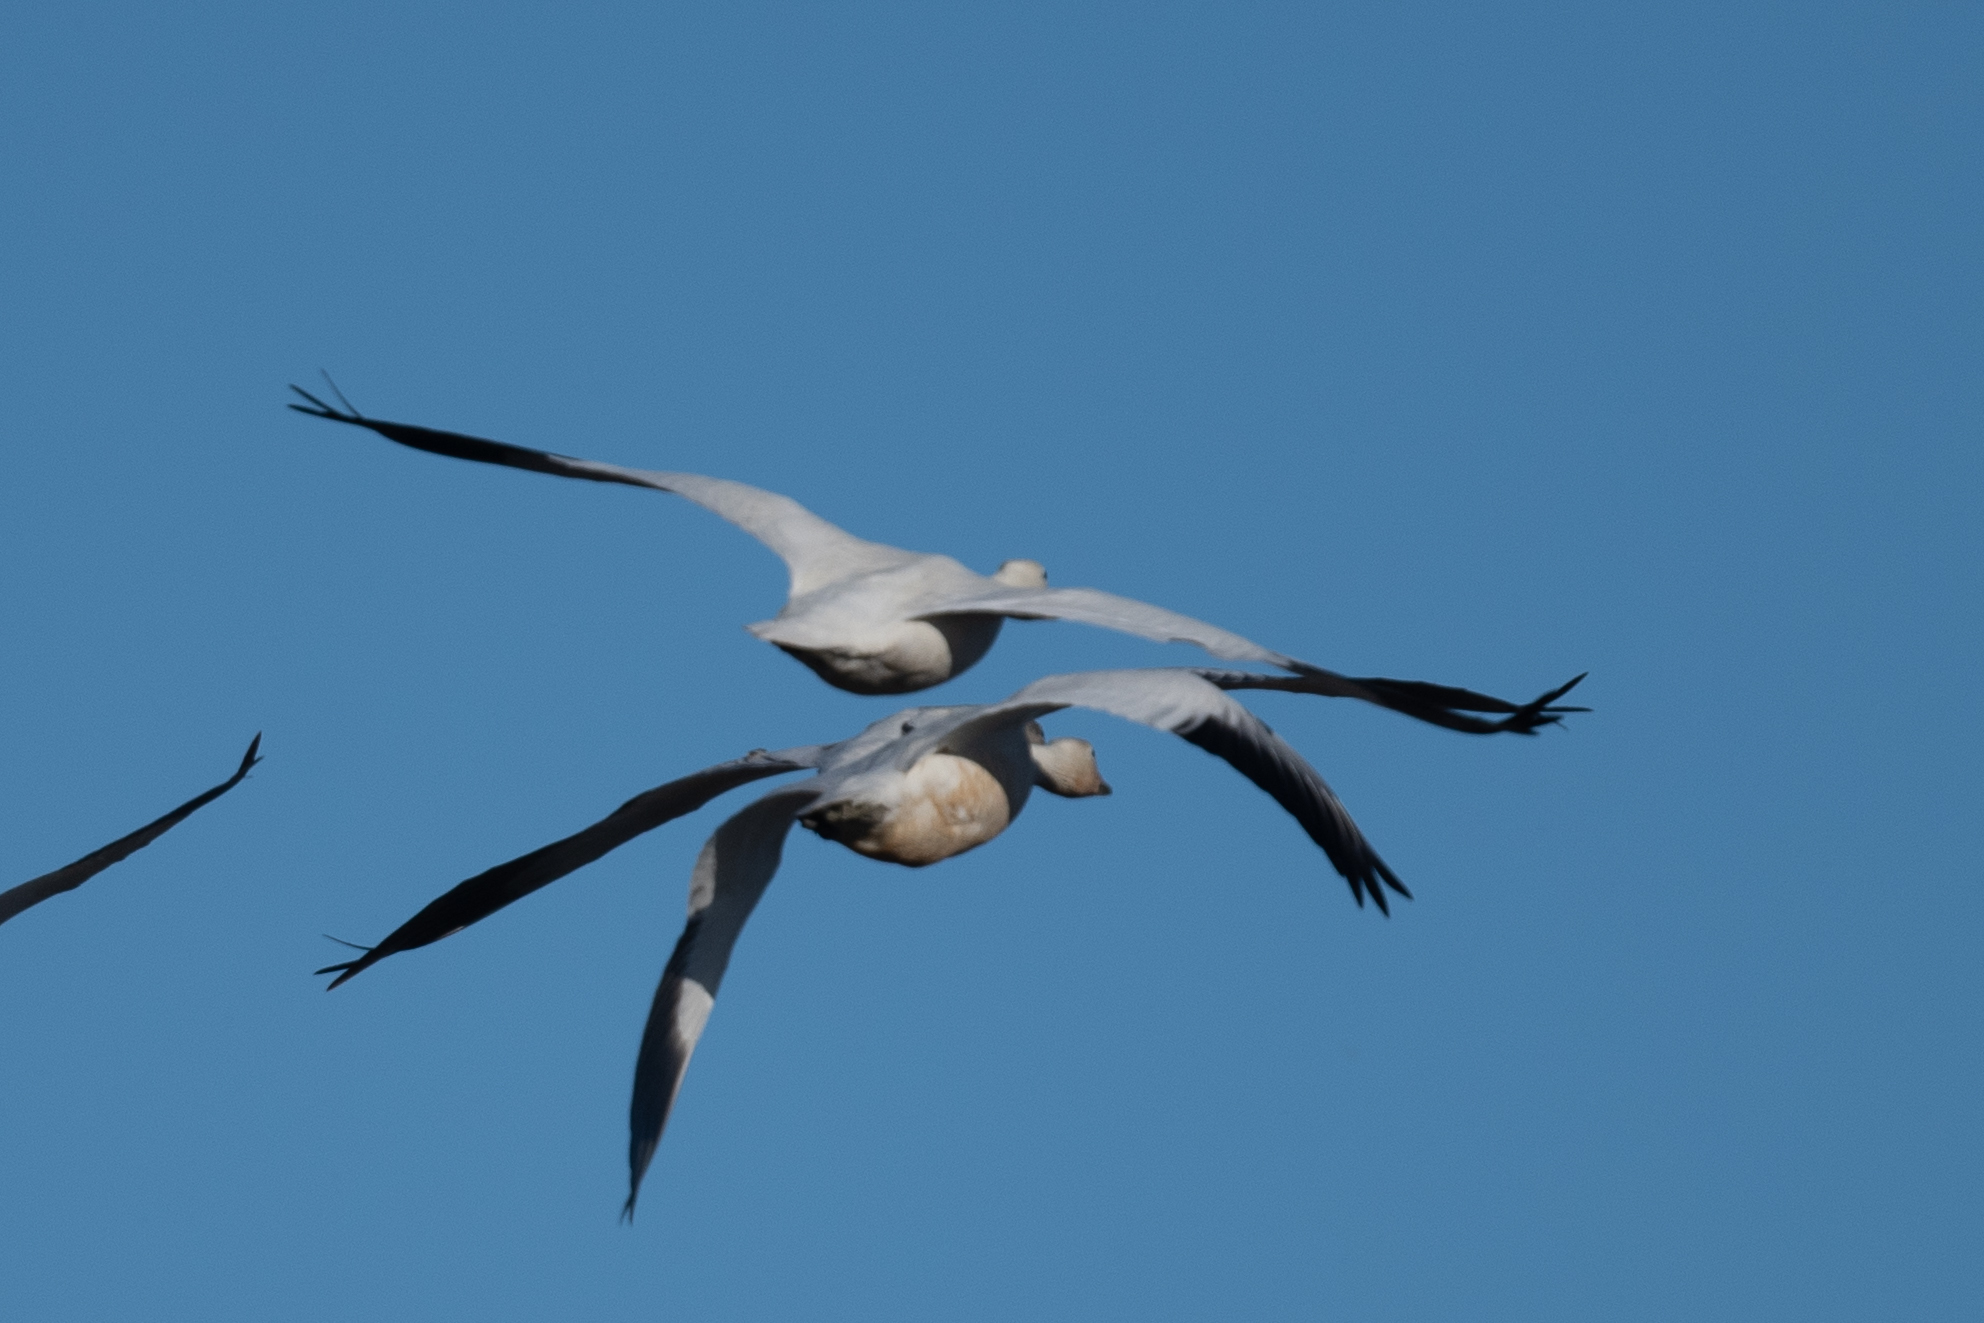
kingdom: Animalia
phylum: Chordata
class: Aves
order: Anseriformes
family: Anatidae
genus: Anser
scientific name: Anser caerulescens
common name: Snow goose
